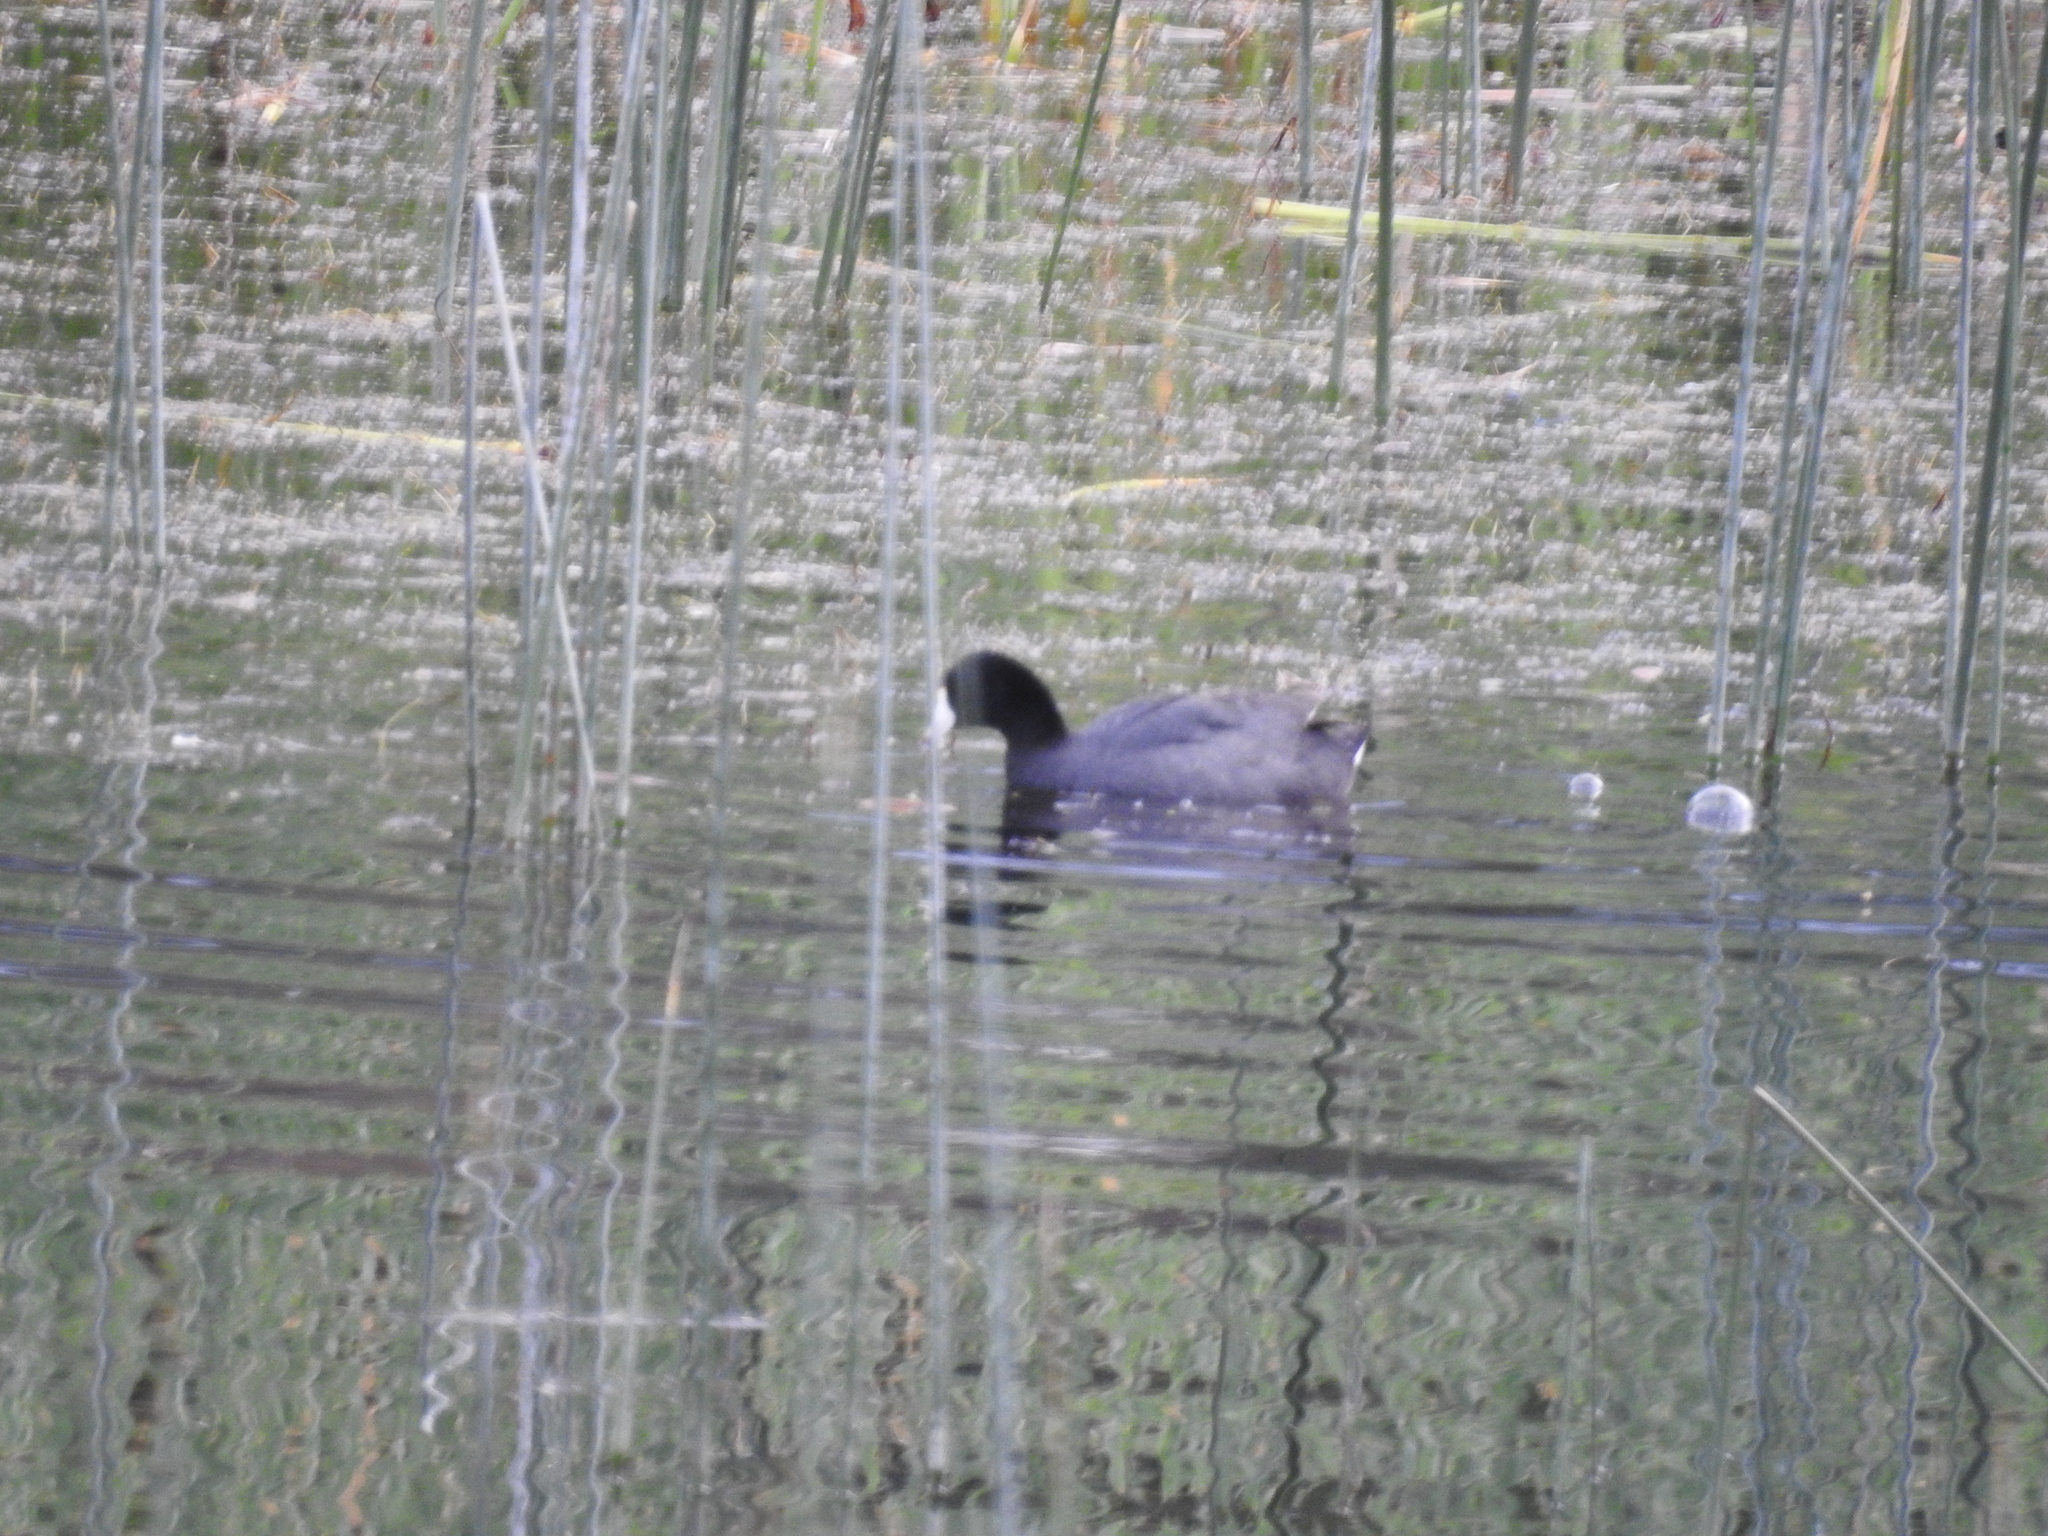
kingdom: Animalia
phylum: Chordata
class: Aves
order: Gruiformes
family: Rallidae
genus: Fulica
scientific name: Fulica americana
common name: American coot
